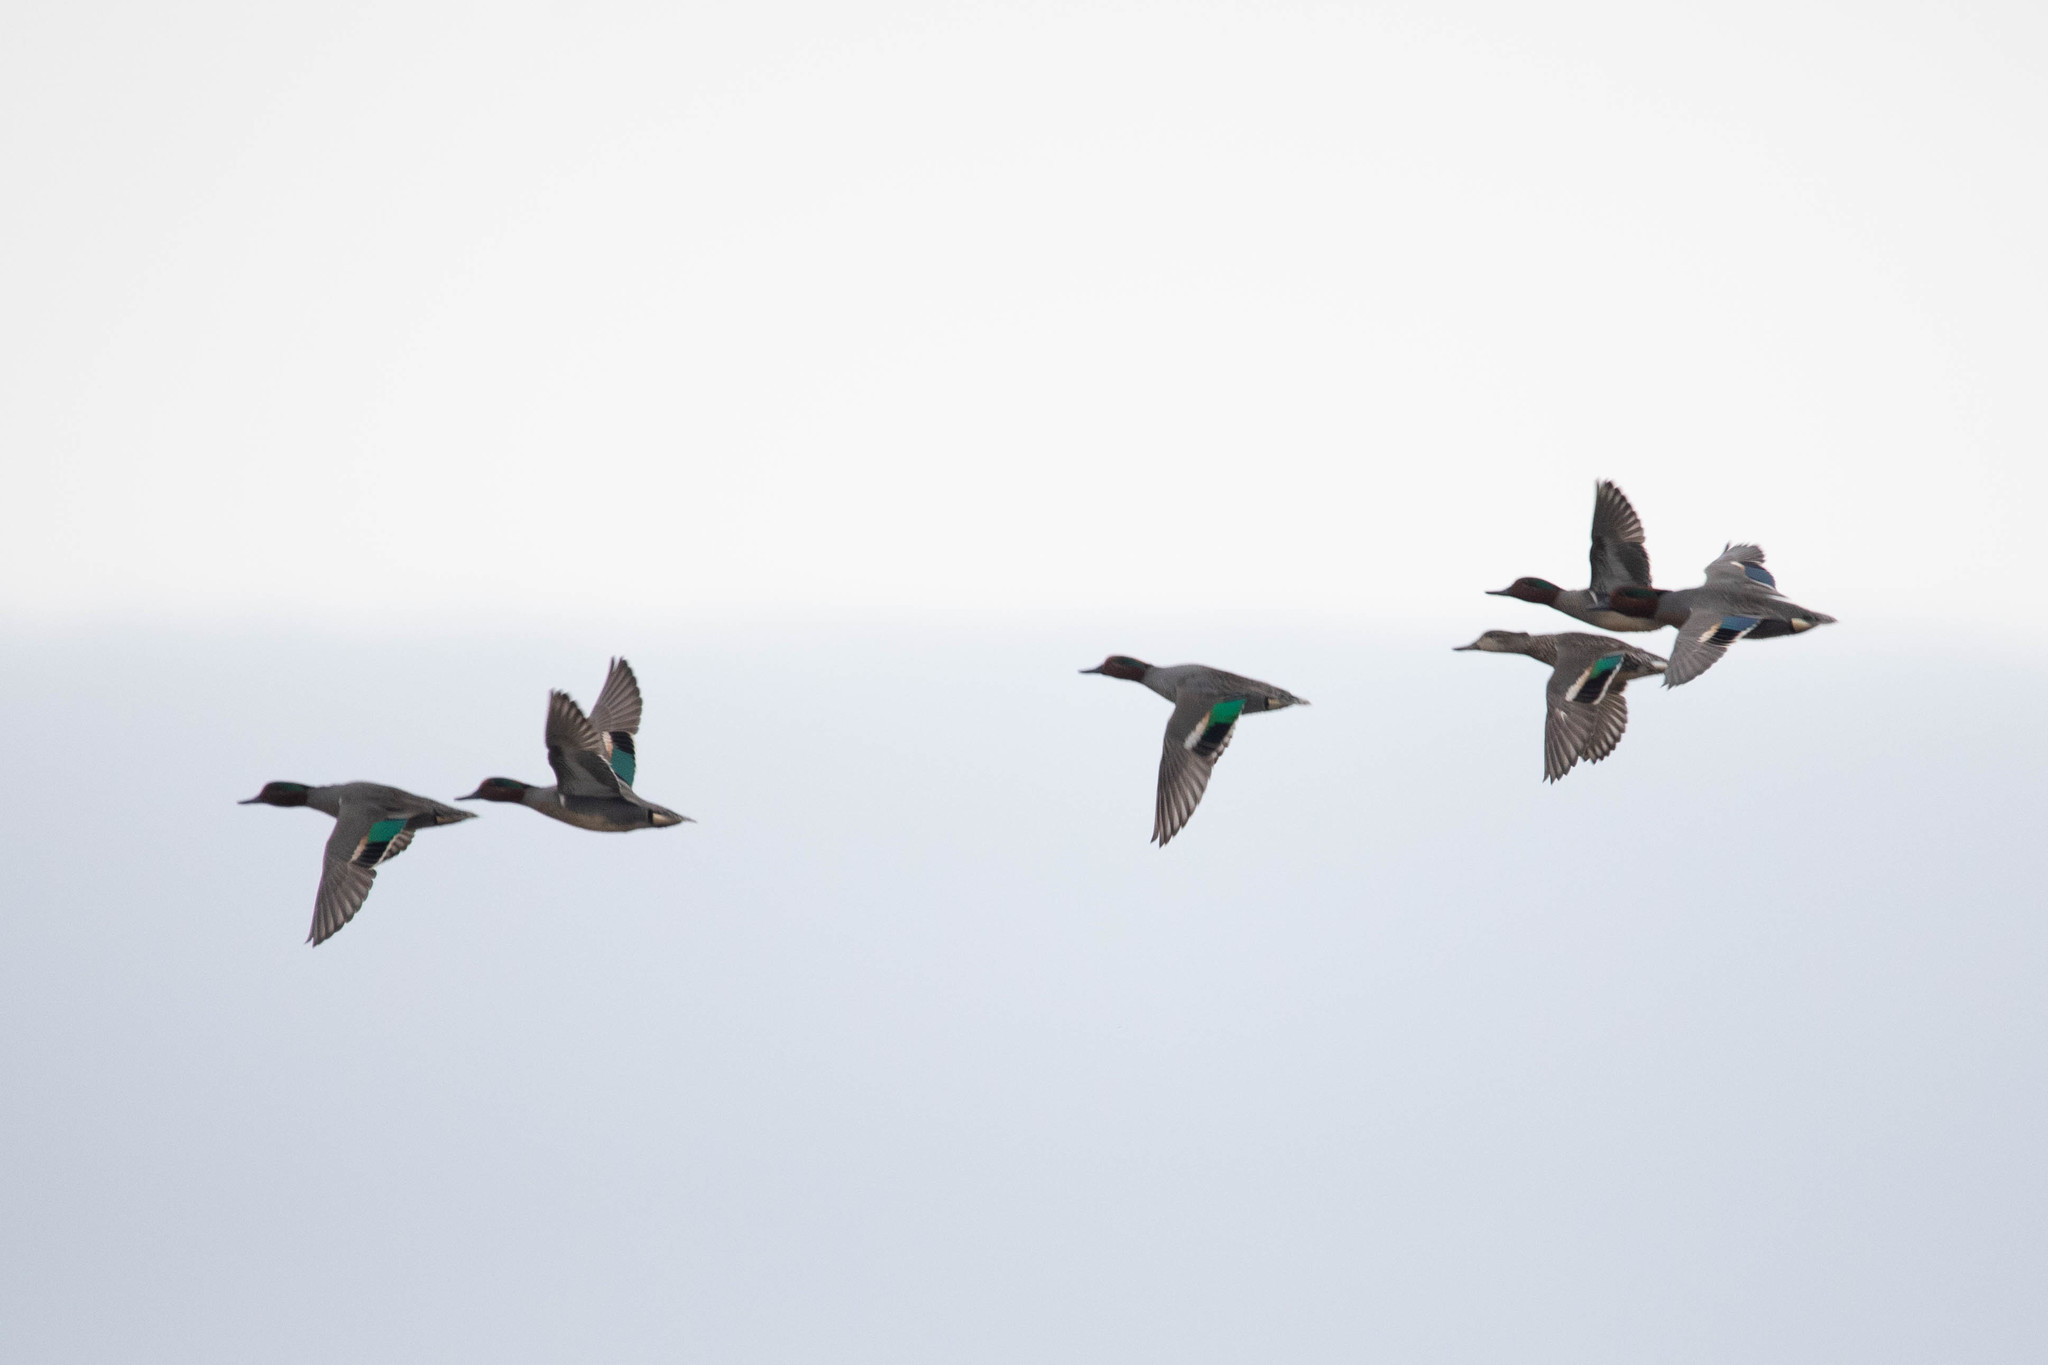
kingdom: Animalia
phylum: Chordata
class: Aves
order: Anseriformes
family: Anatidae
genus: Anas
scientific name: Anas crecca
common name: Eurasian teal
